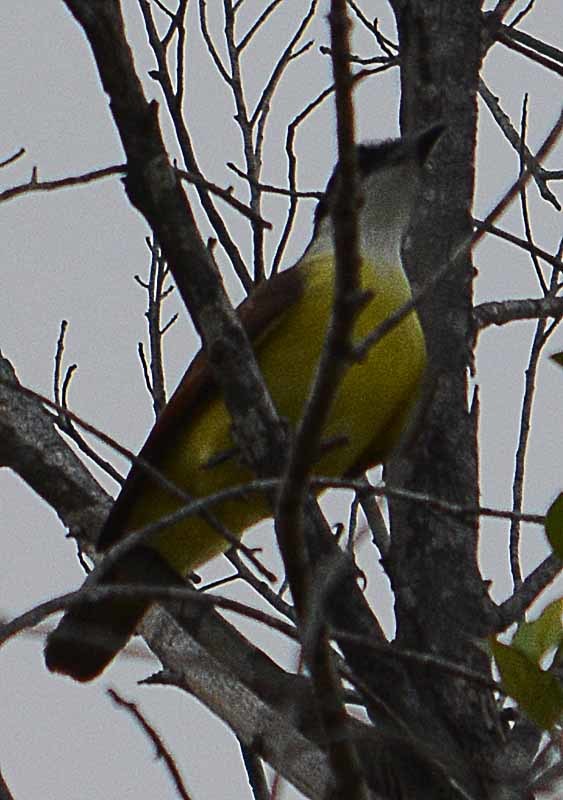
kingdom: Animalia
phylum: Chordata
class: Aves
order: Passeriformes
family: Tyrannidae
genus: Pitangus
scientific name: Pitangus sulphuratus
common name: Great kiskadee
